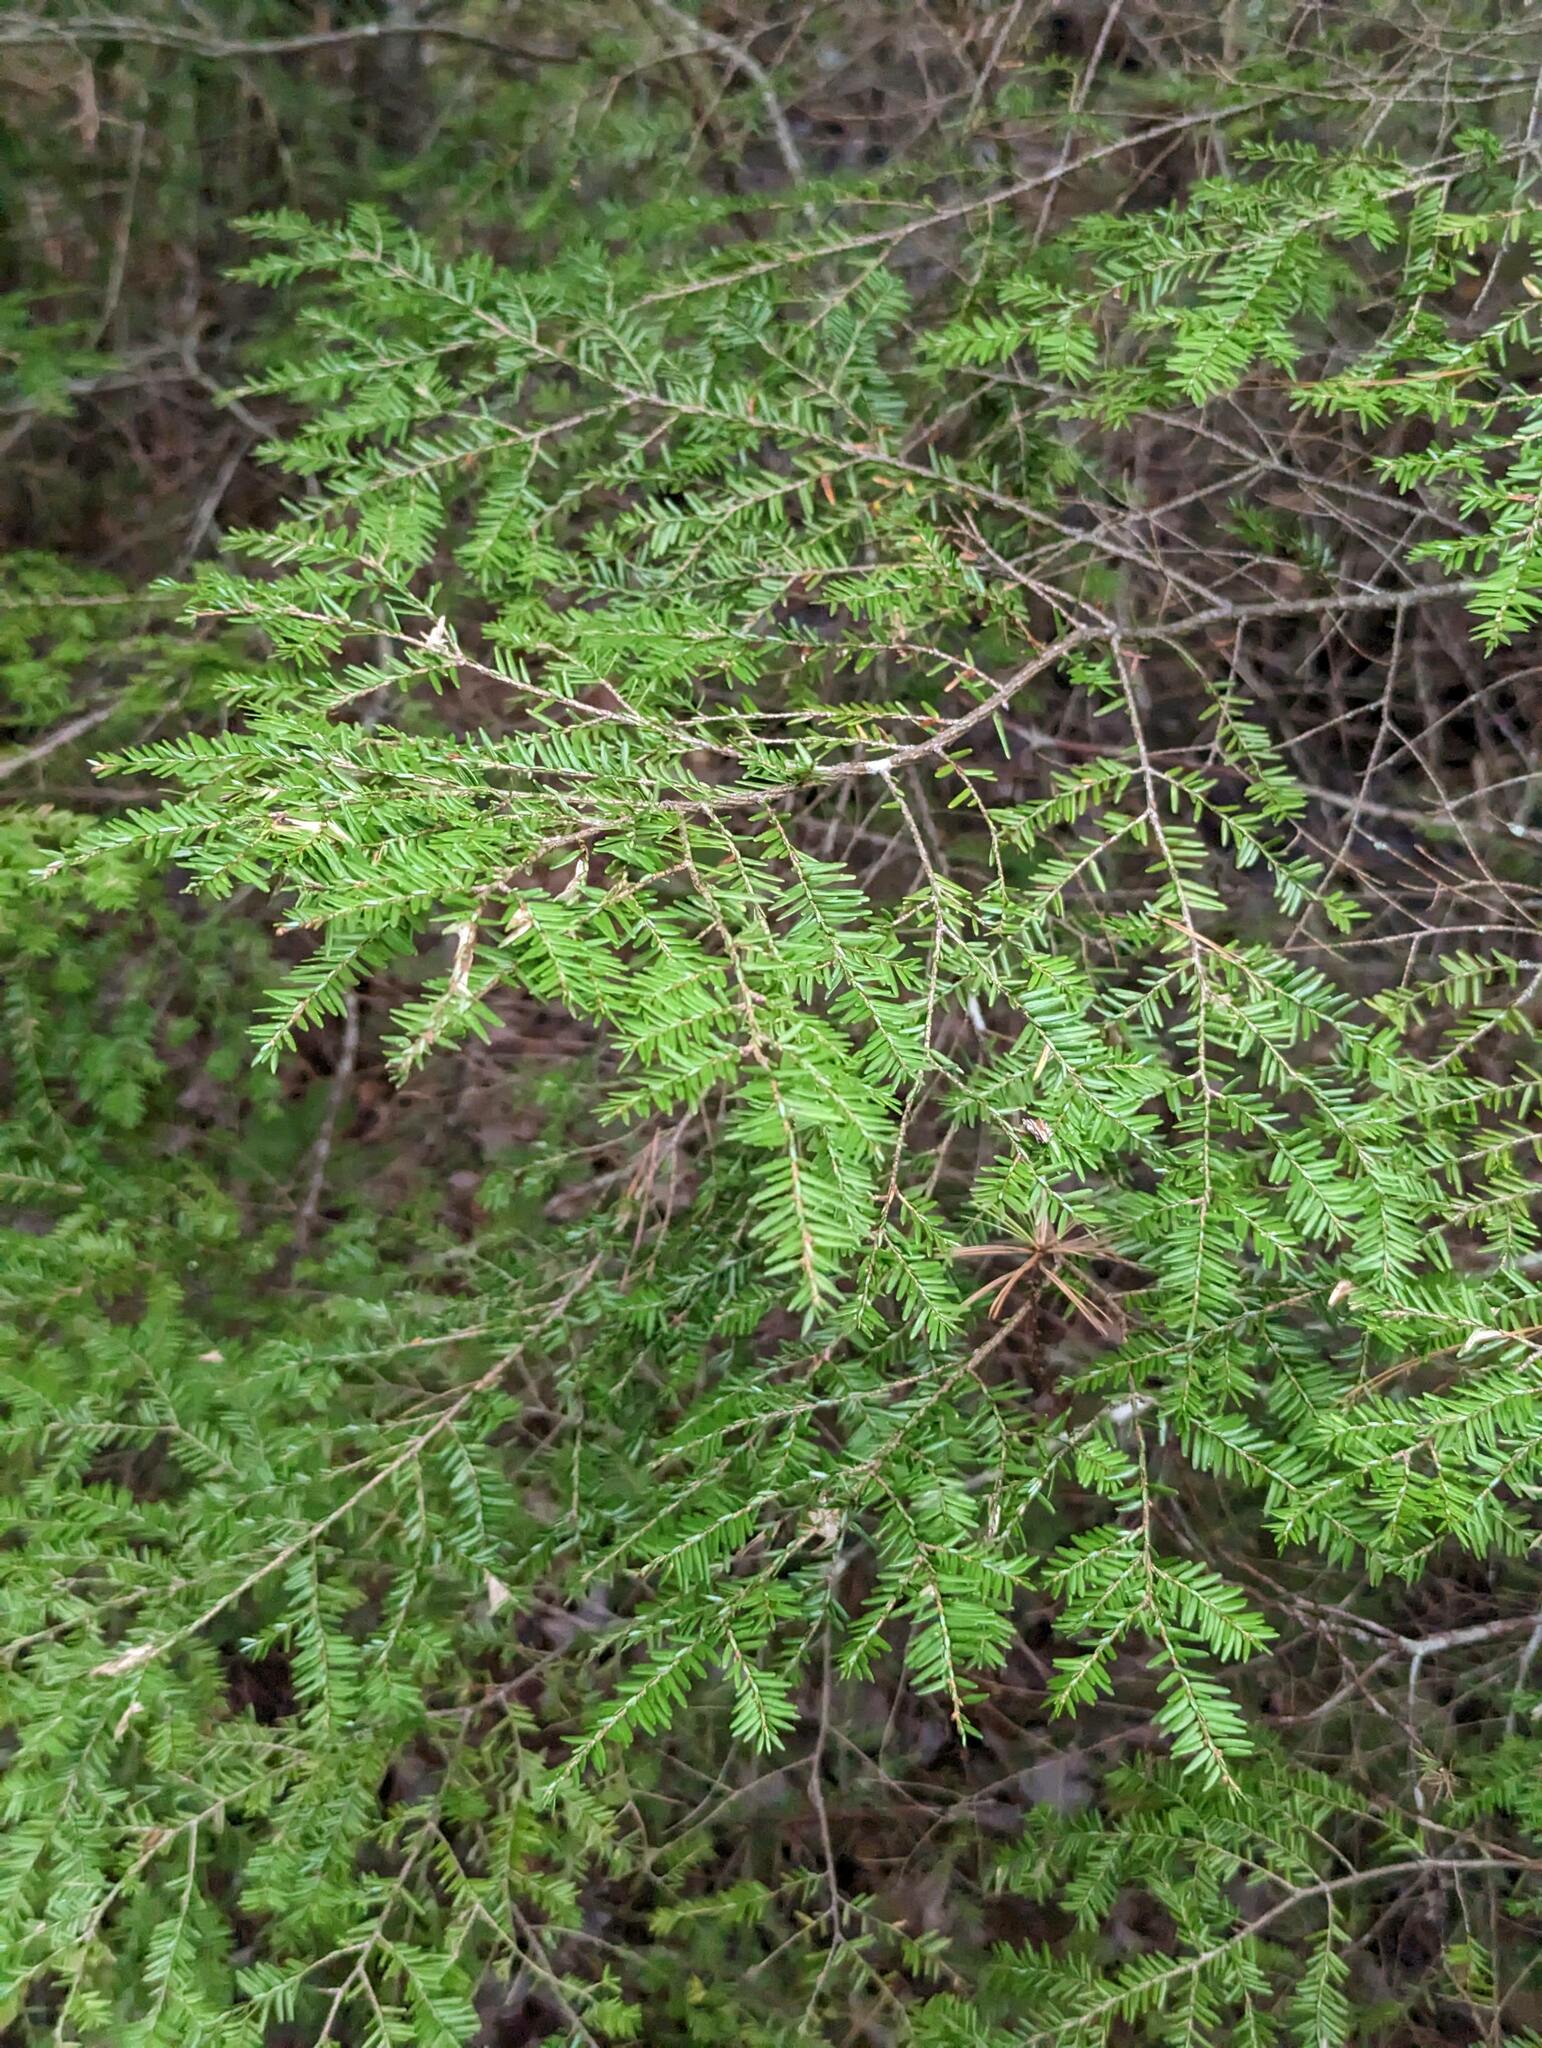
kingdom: Plantae
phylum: Tracheophyta
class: Pinopsida
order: Pinales
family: Pinaceae
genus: Tsuga
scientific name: Tsuga canadensis
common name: Eastern hemlock
